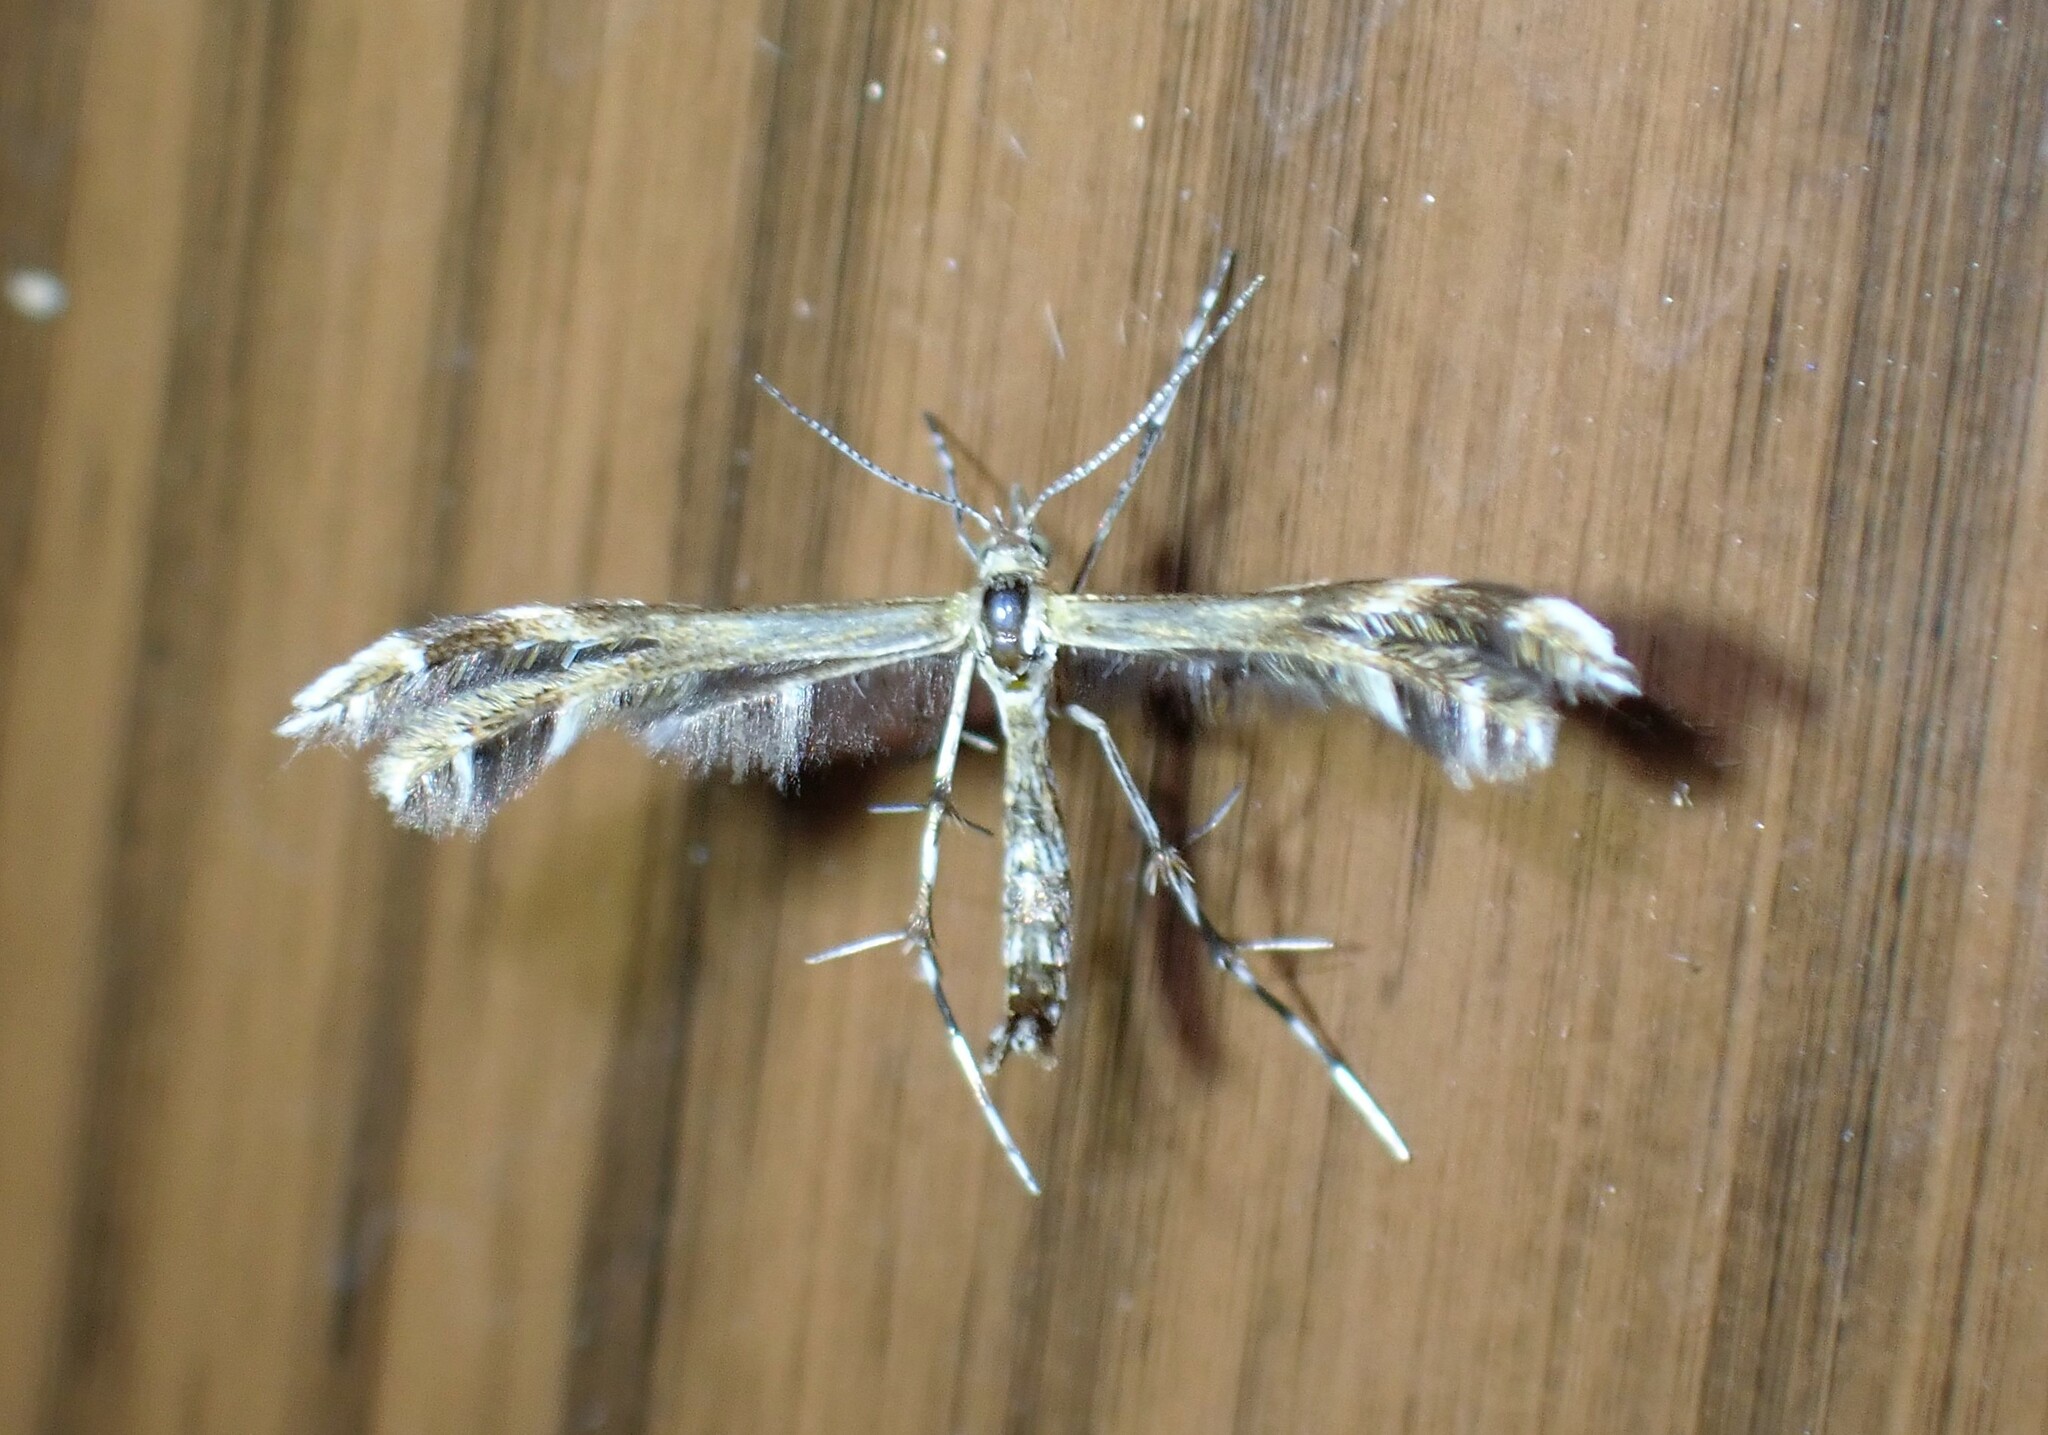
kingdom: Animalia
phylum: Arthropoda
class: Insecta
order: Lepidoptera
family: Pterophoridae
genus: Dejongia
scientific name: Dejongia lobidactylus
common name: Lobed plume moth
